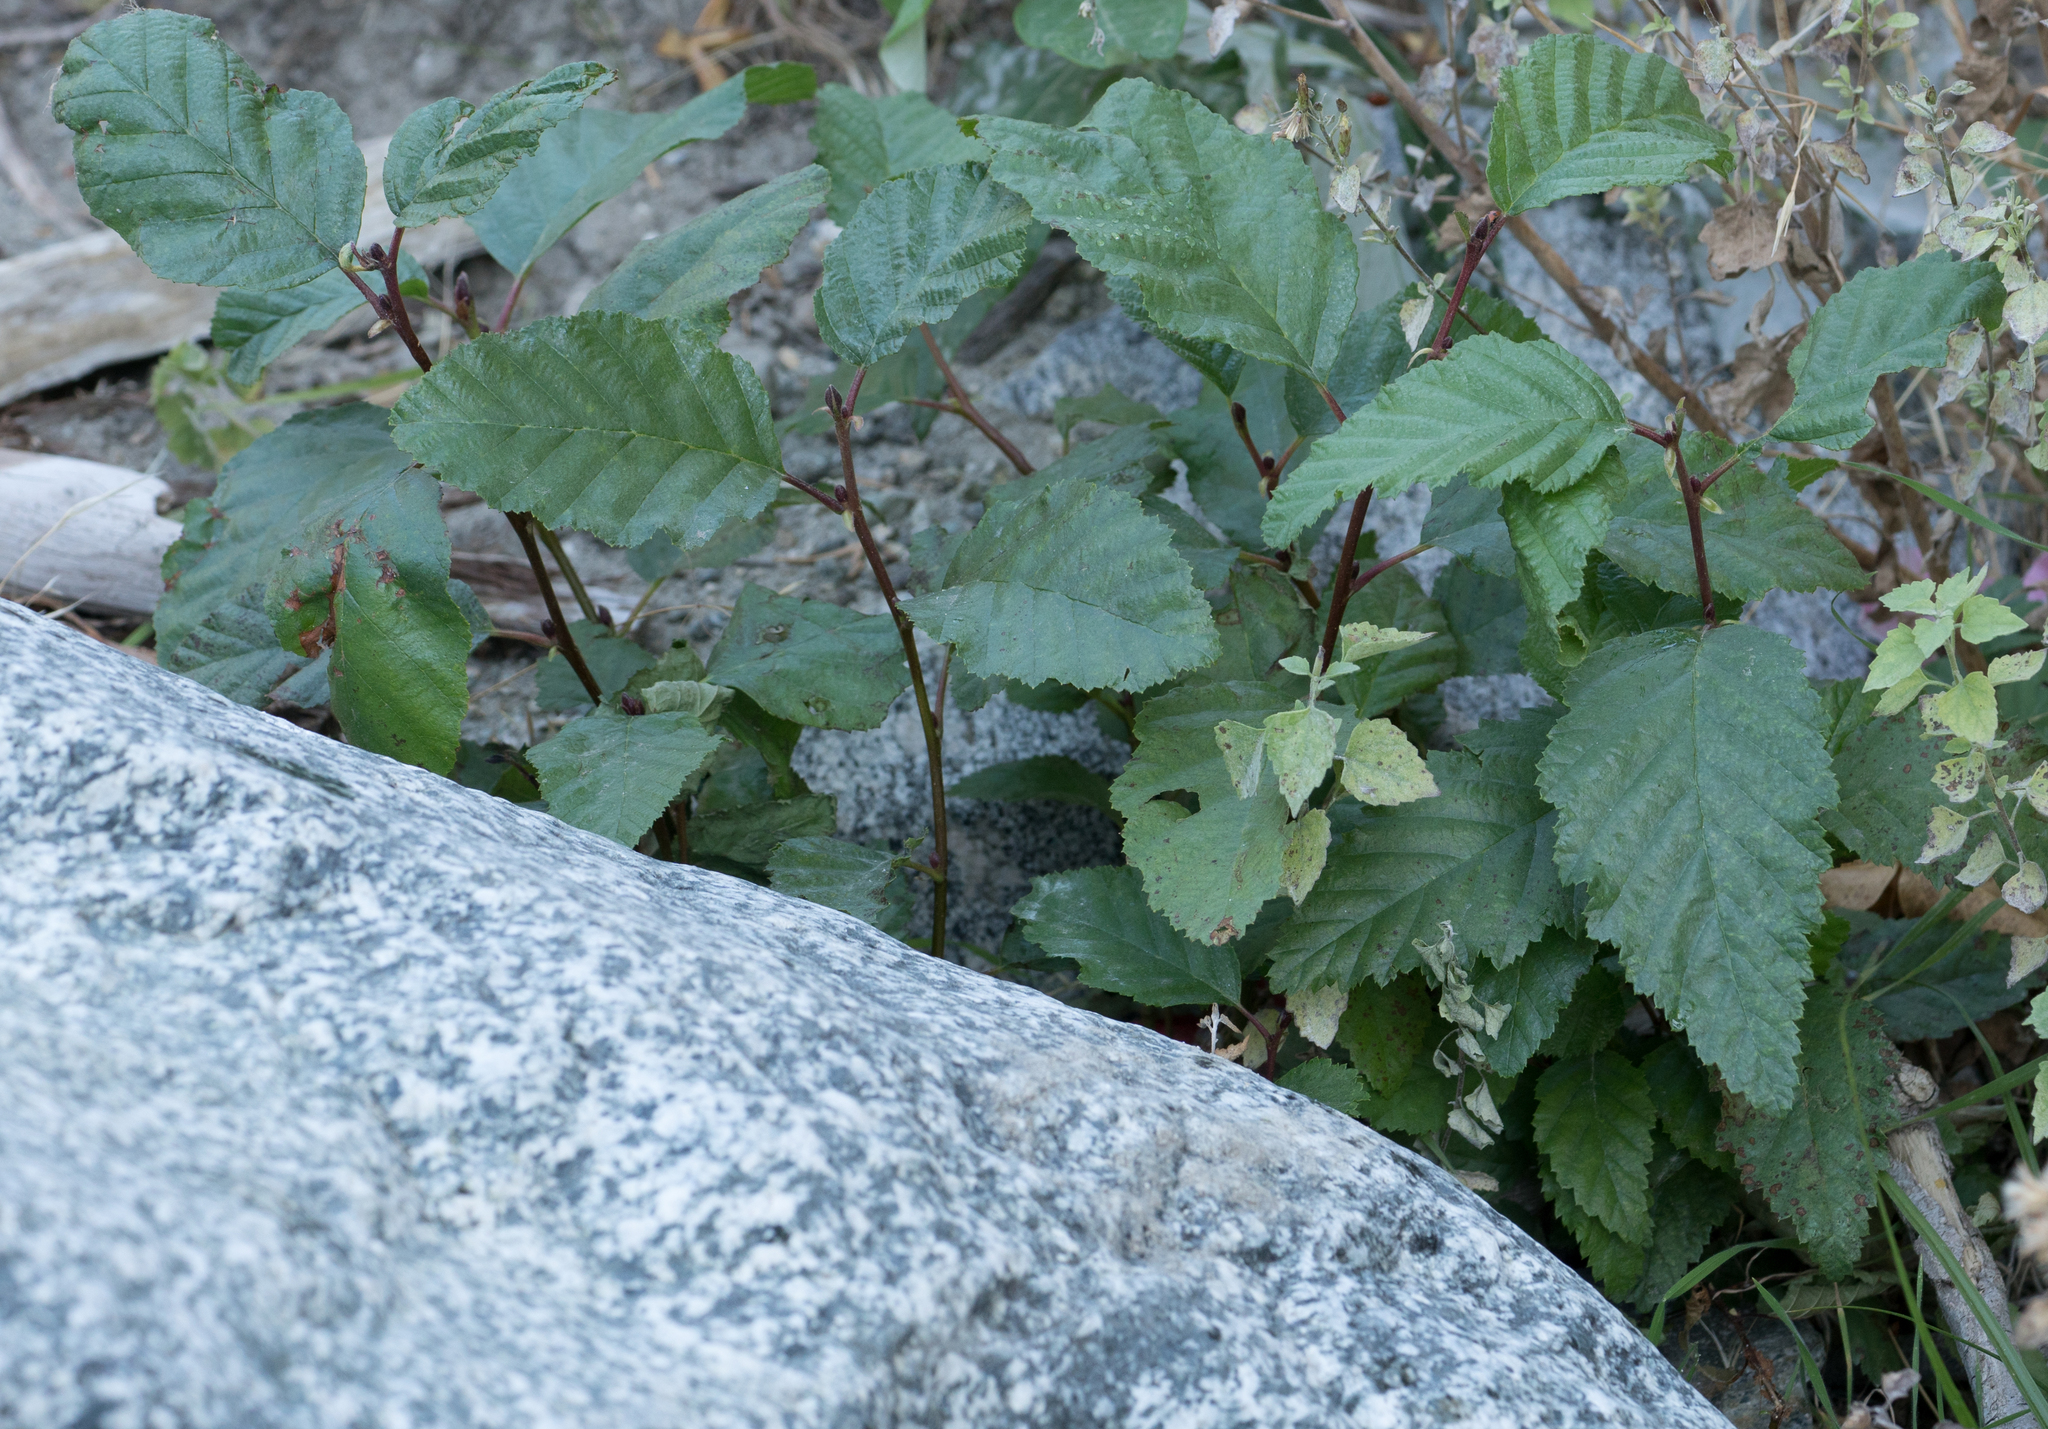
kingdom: Plantae
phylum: Tracheophyta
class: Magnoliopsida
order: Fagales
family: Betulaceae
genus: Alnus
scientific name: Alnus rhombifolia
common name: California alder
